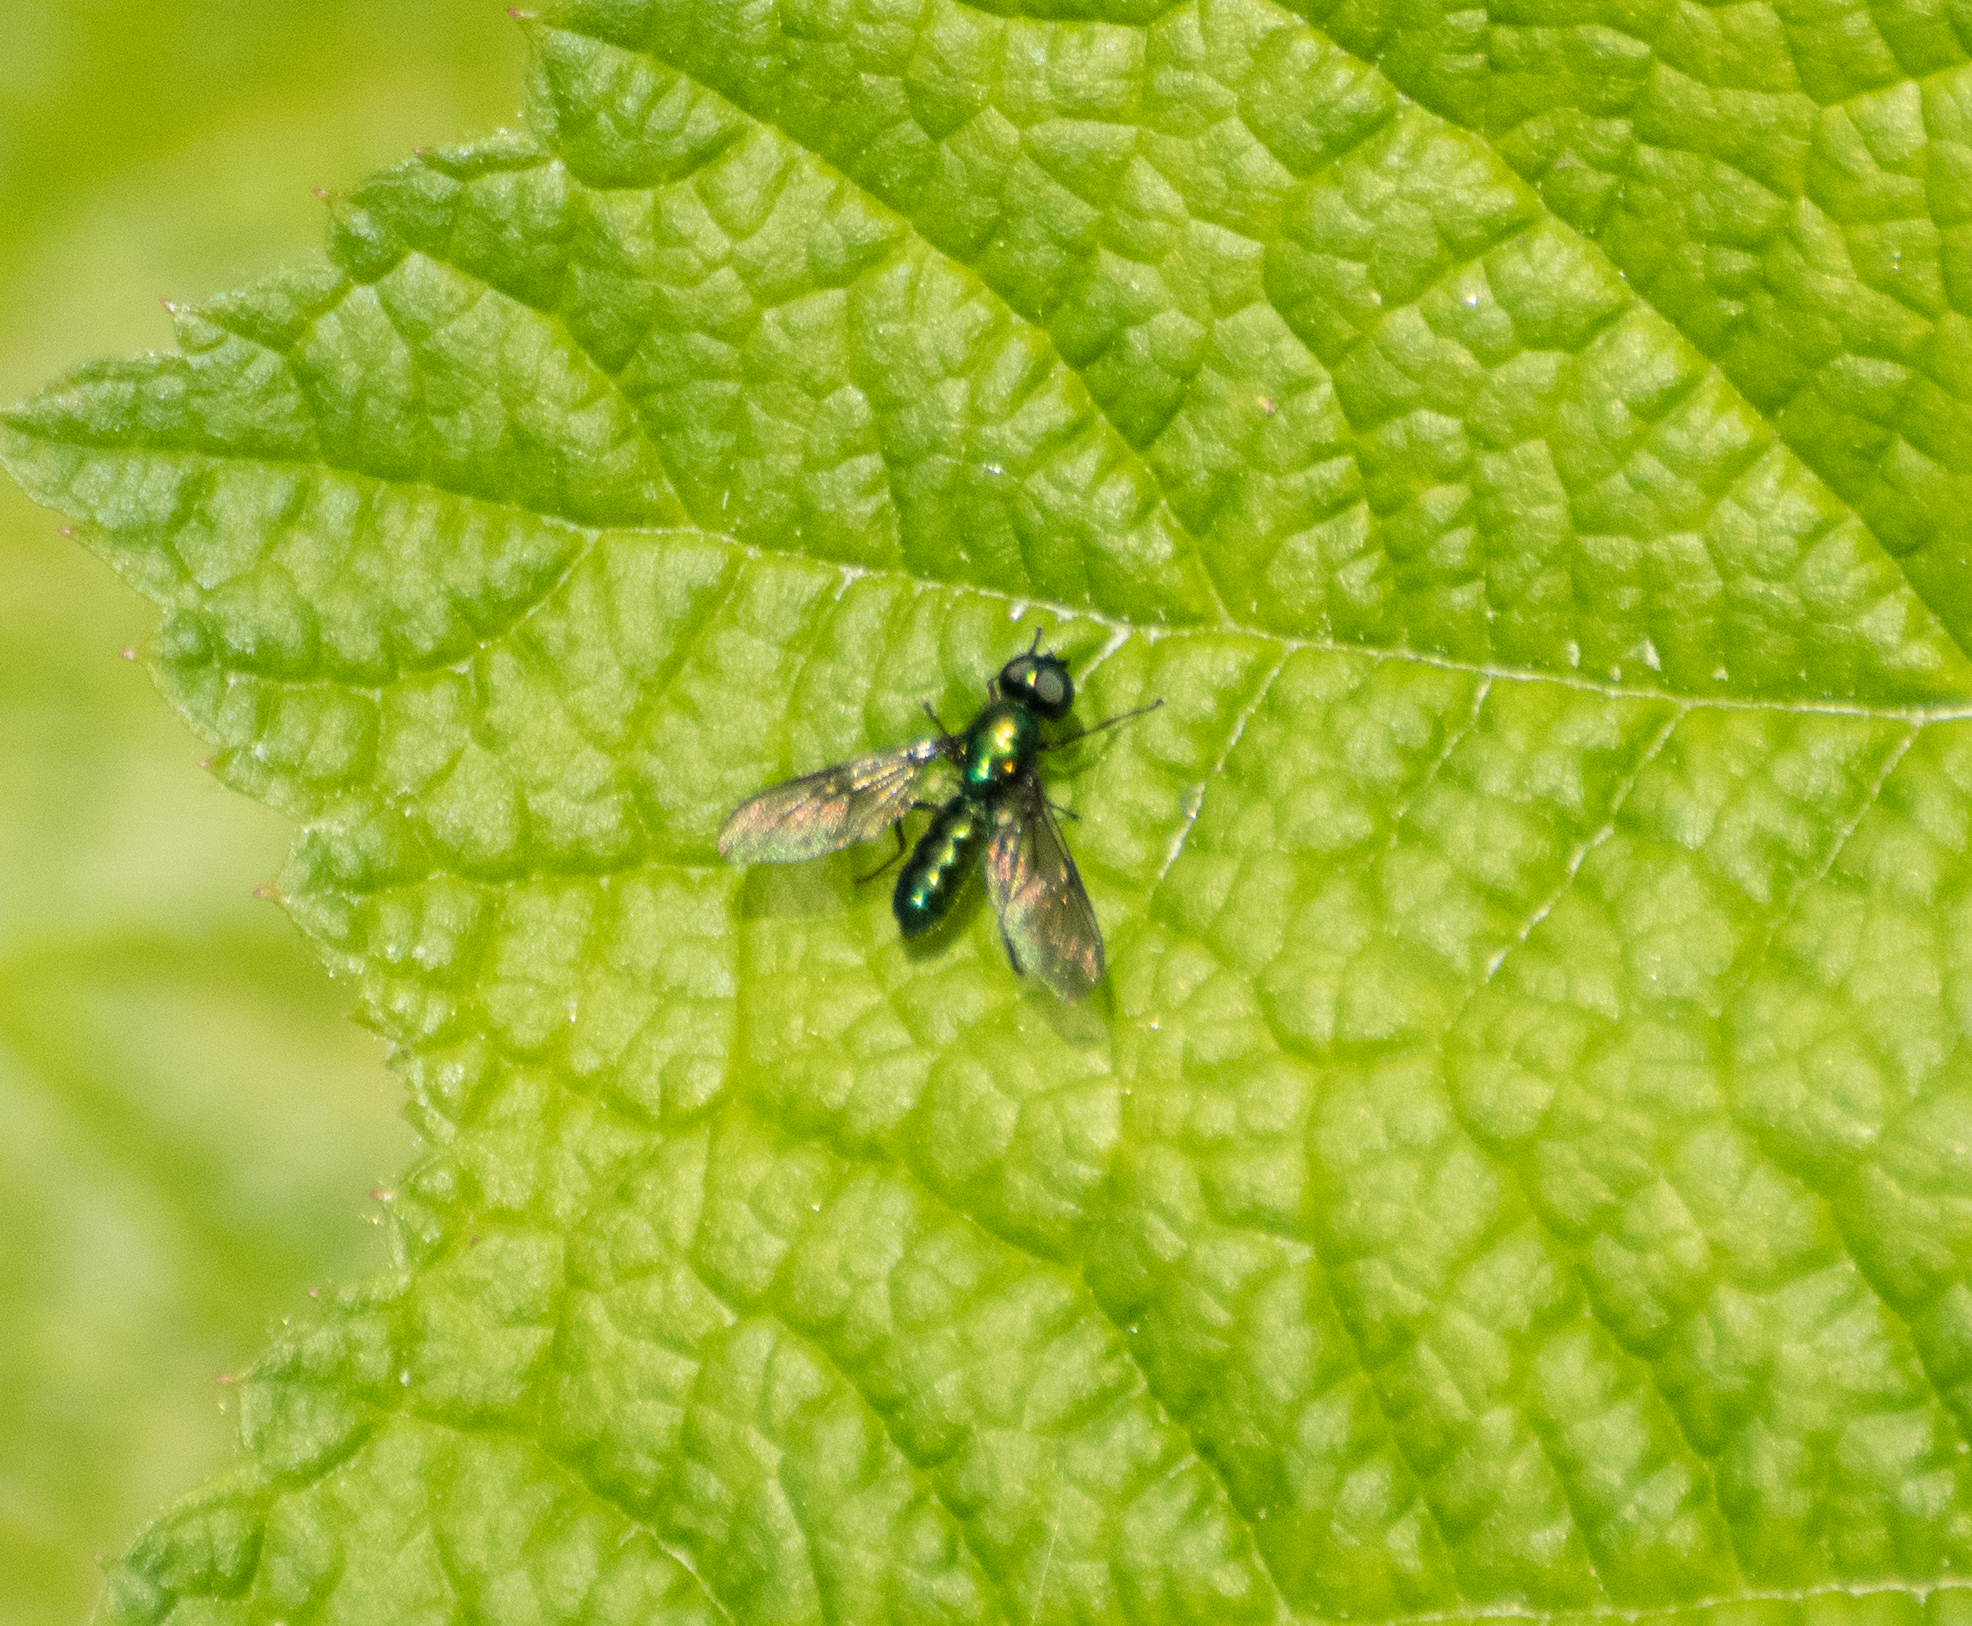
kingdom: Animalia
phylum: Arthropoda
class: Insecta
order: Diptera
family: Stratiomyidae
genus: Sargus
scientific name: Sargus viridis
